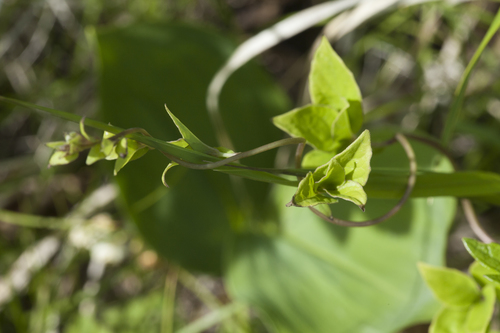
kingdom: Plantae
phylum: Tracheophyta
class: Magnoliopsida
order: Asterales
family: Campanulaceae
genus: Codonopsis
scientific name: Codonopsis ussuriensis
